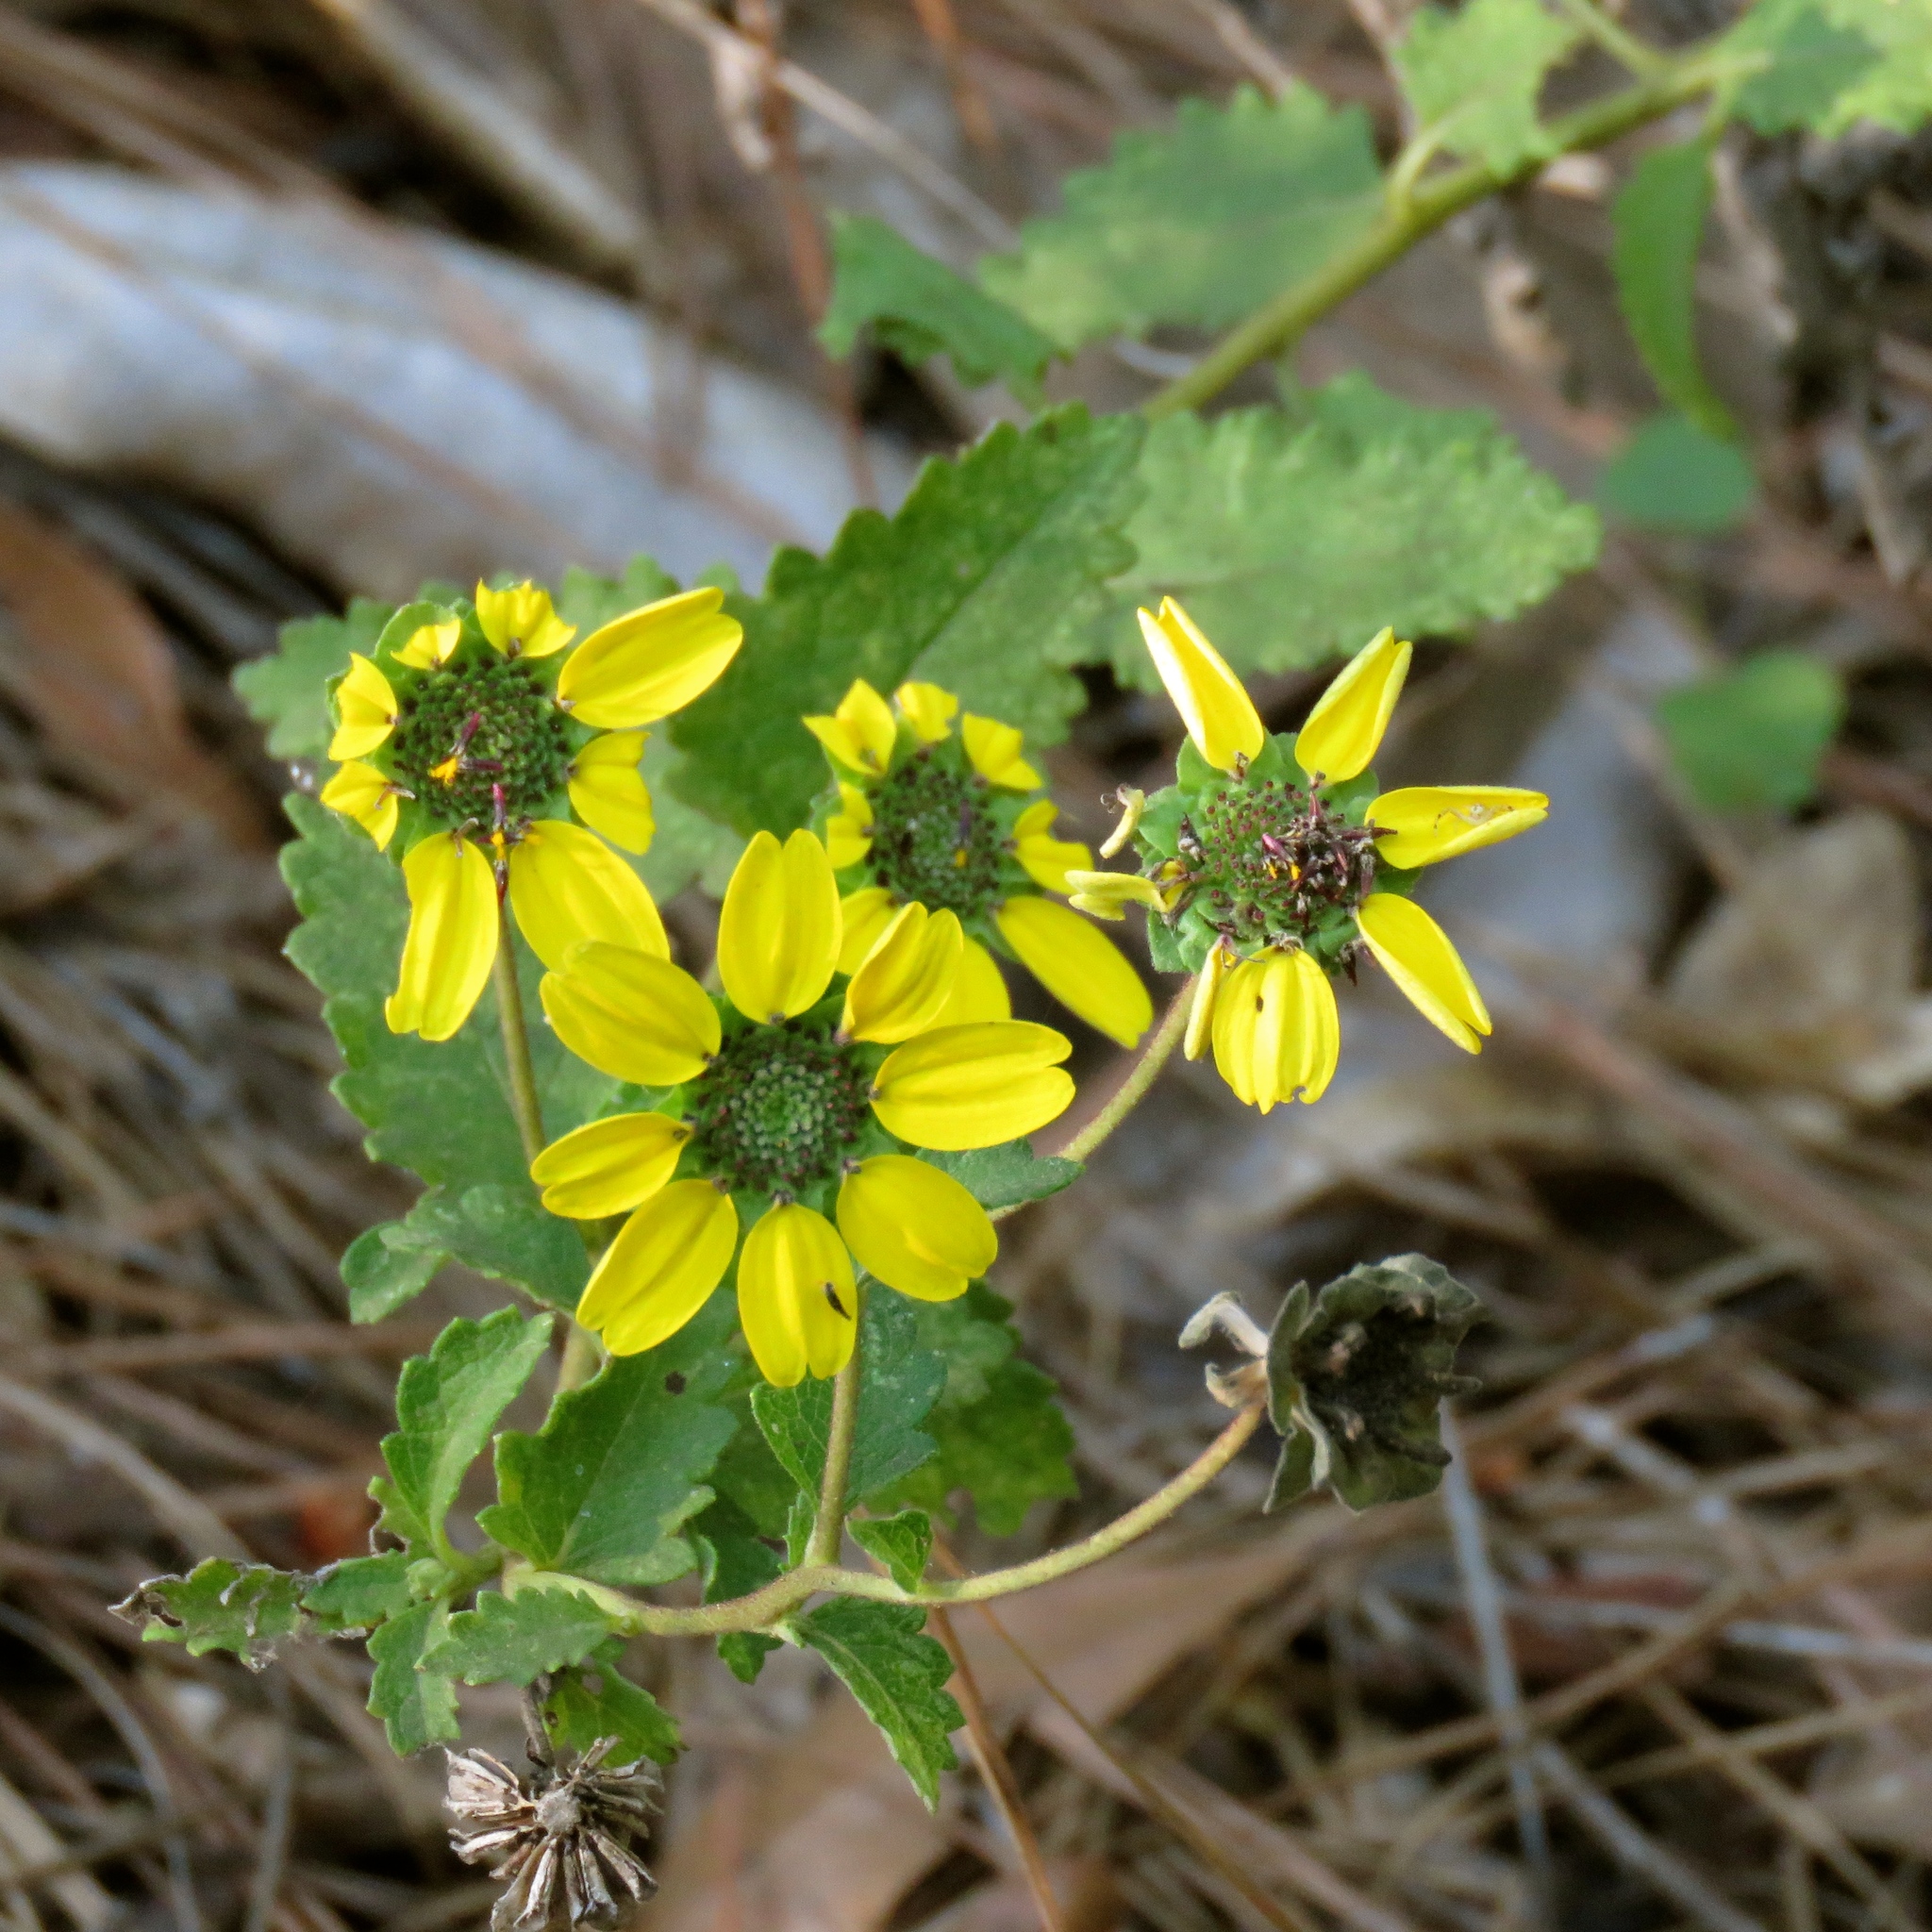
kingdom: Plantae
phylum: Tracheophyta
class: Magnoliopsida
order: Asterales
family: Asteraceae
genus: Berlandiera
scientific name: Berlandiera pumila
